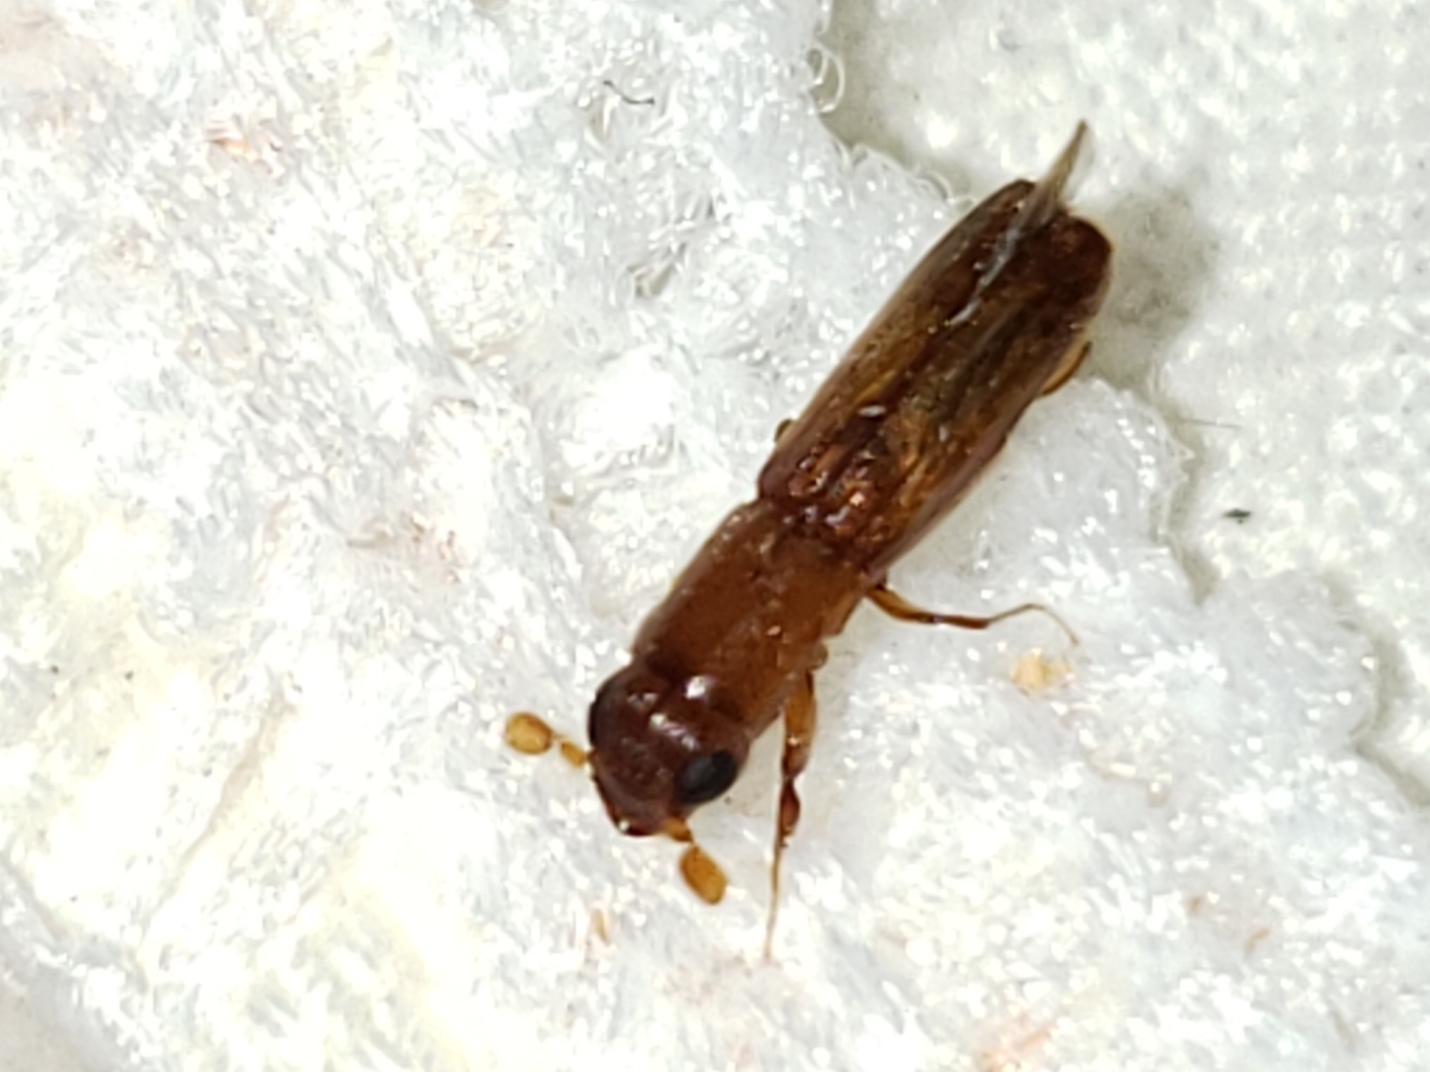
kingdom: Animalia
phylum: Arthropoda
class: Insecta
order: Coleoptera
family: Curculionidae
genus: Euplatypus
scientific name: Euplatypus compositus
